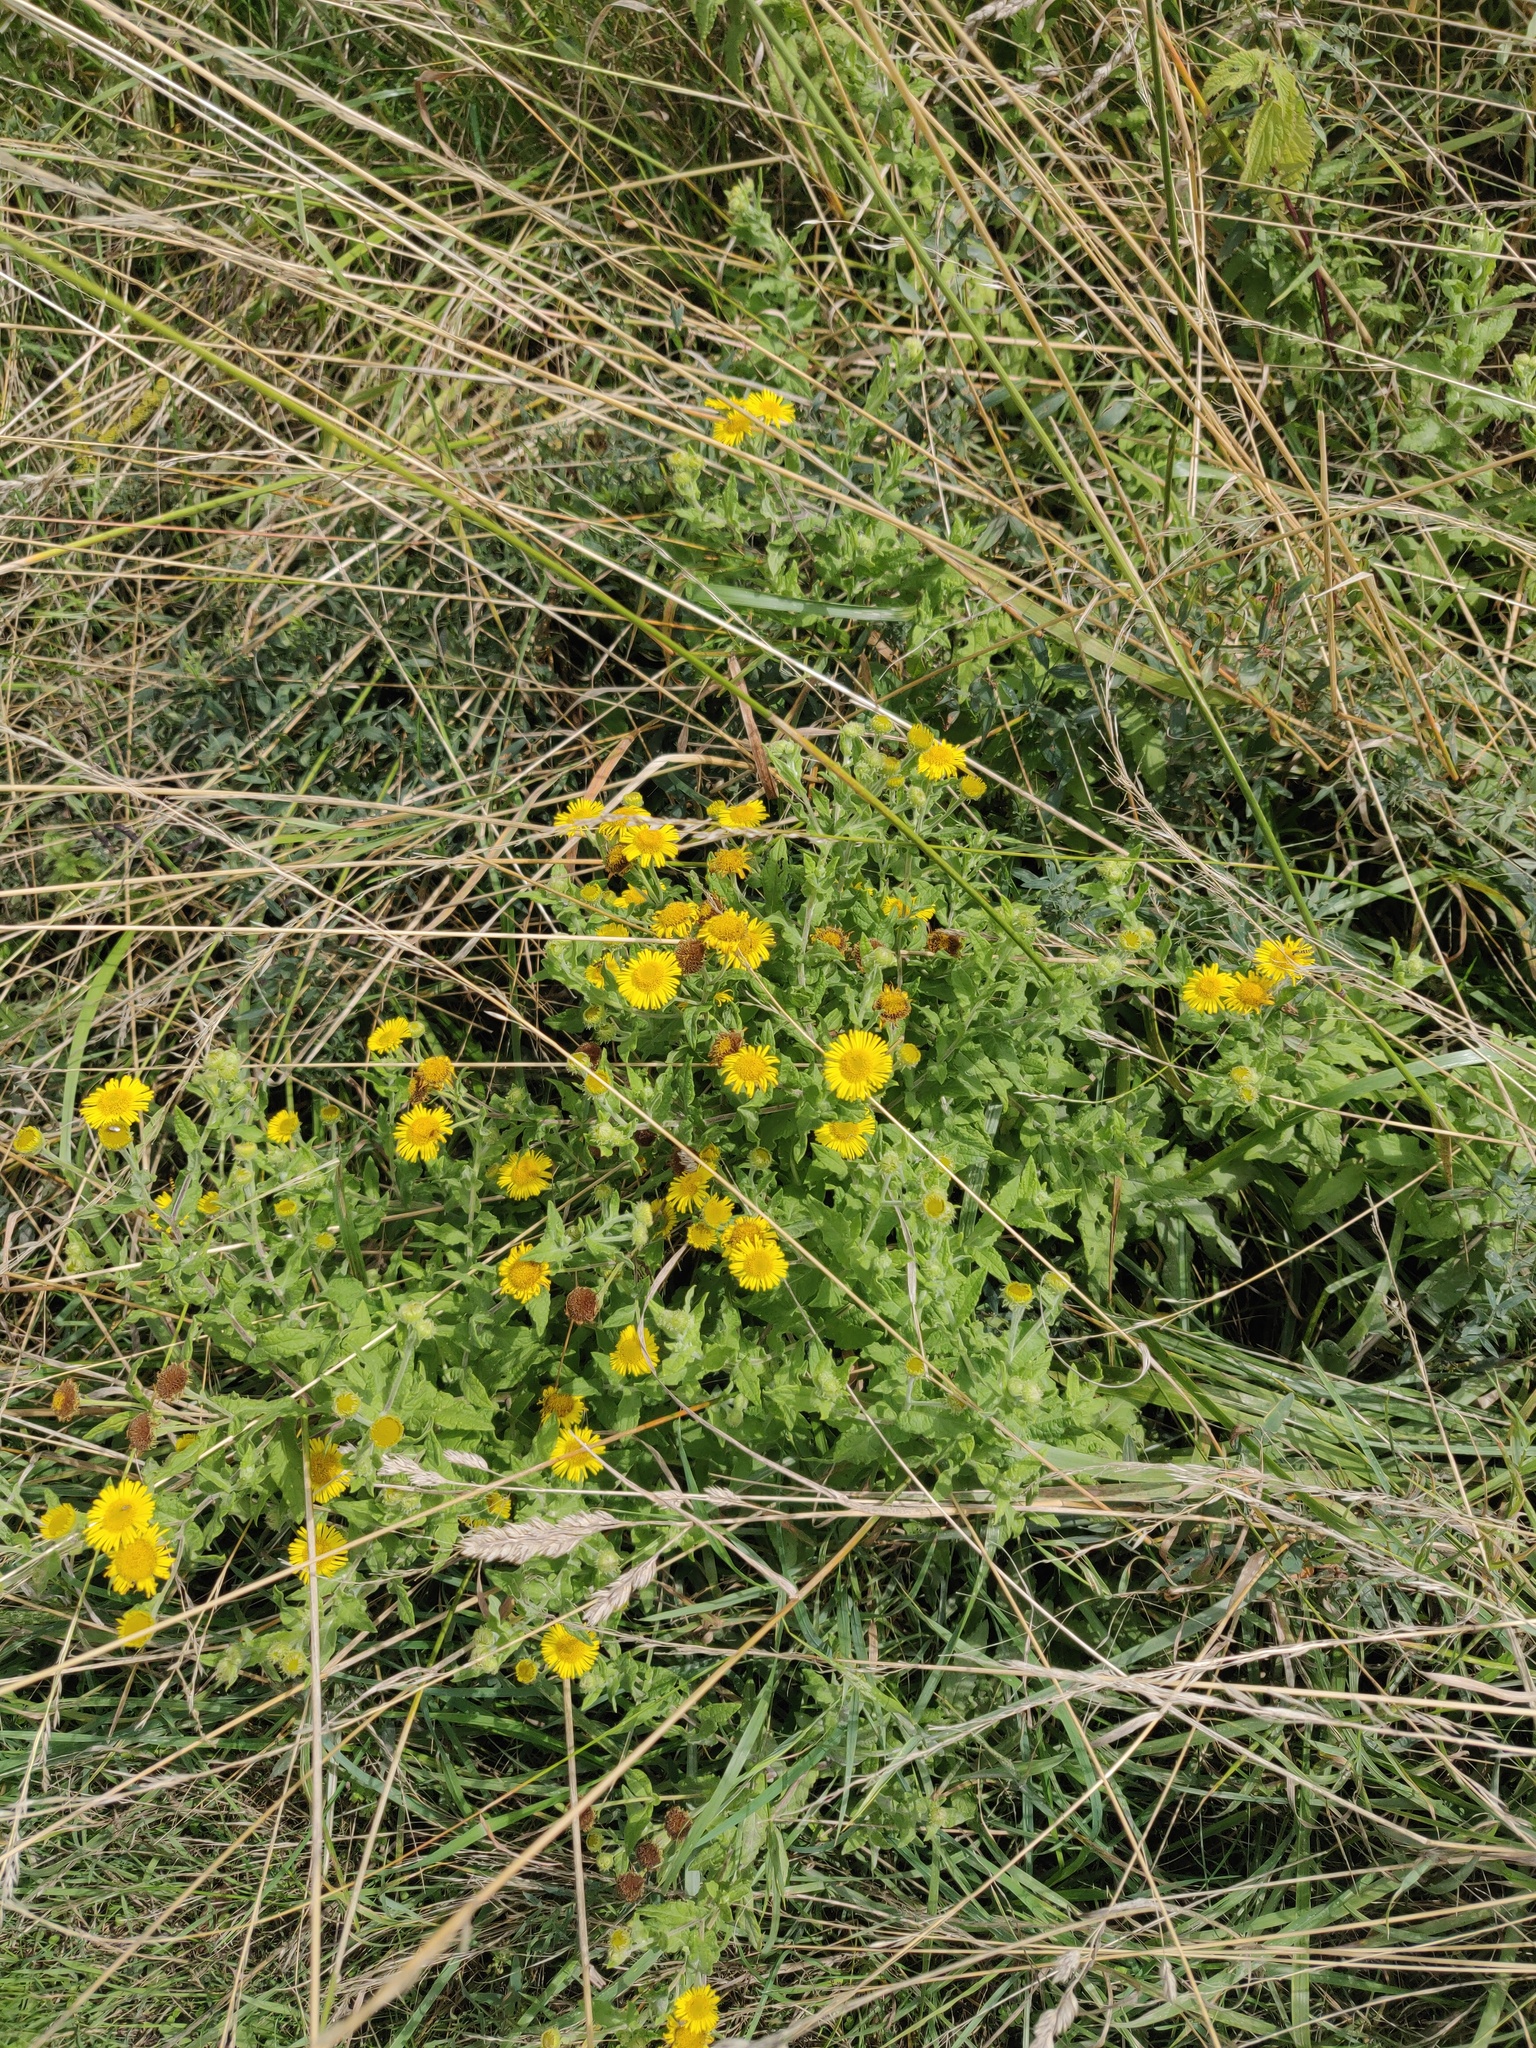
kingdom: Plantae
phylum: Tracheophyta
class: Magnoliopsida
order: Asterales
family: Asteraceae
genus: Pulicaria
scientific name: Pulicaria dysenterica
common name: Common fleabane
